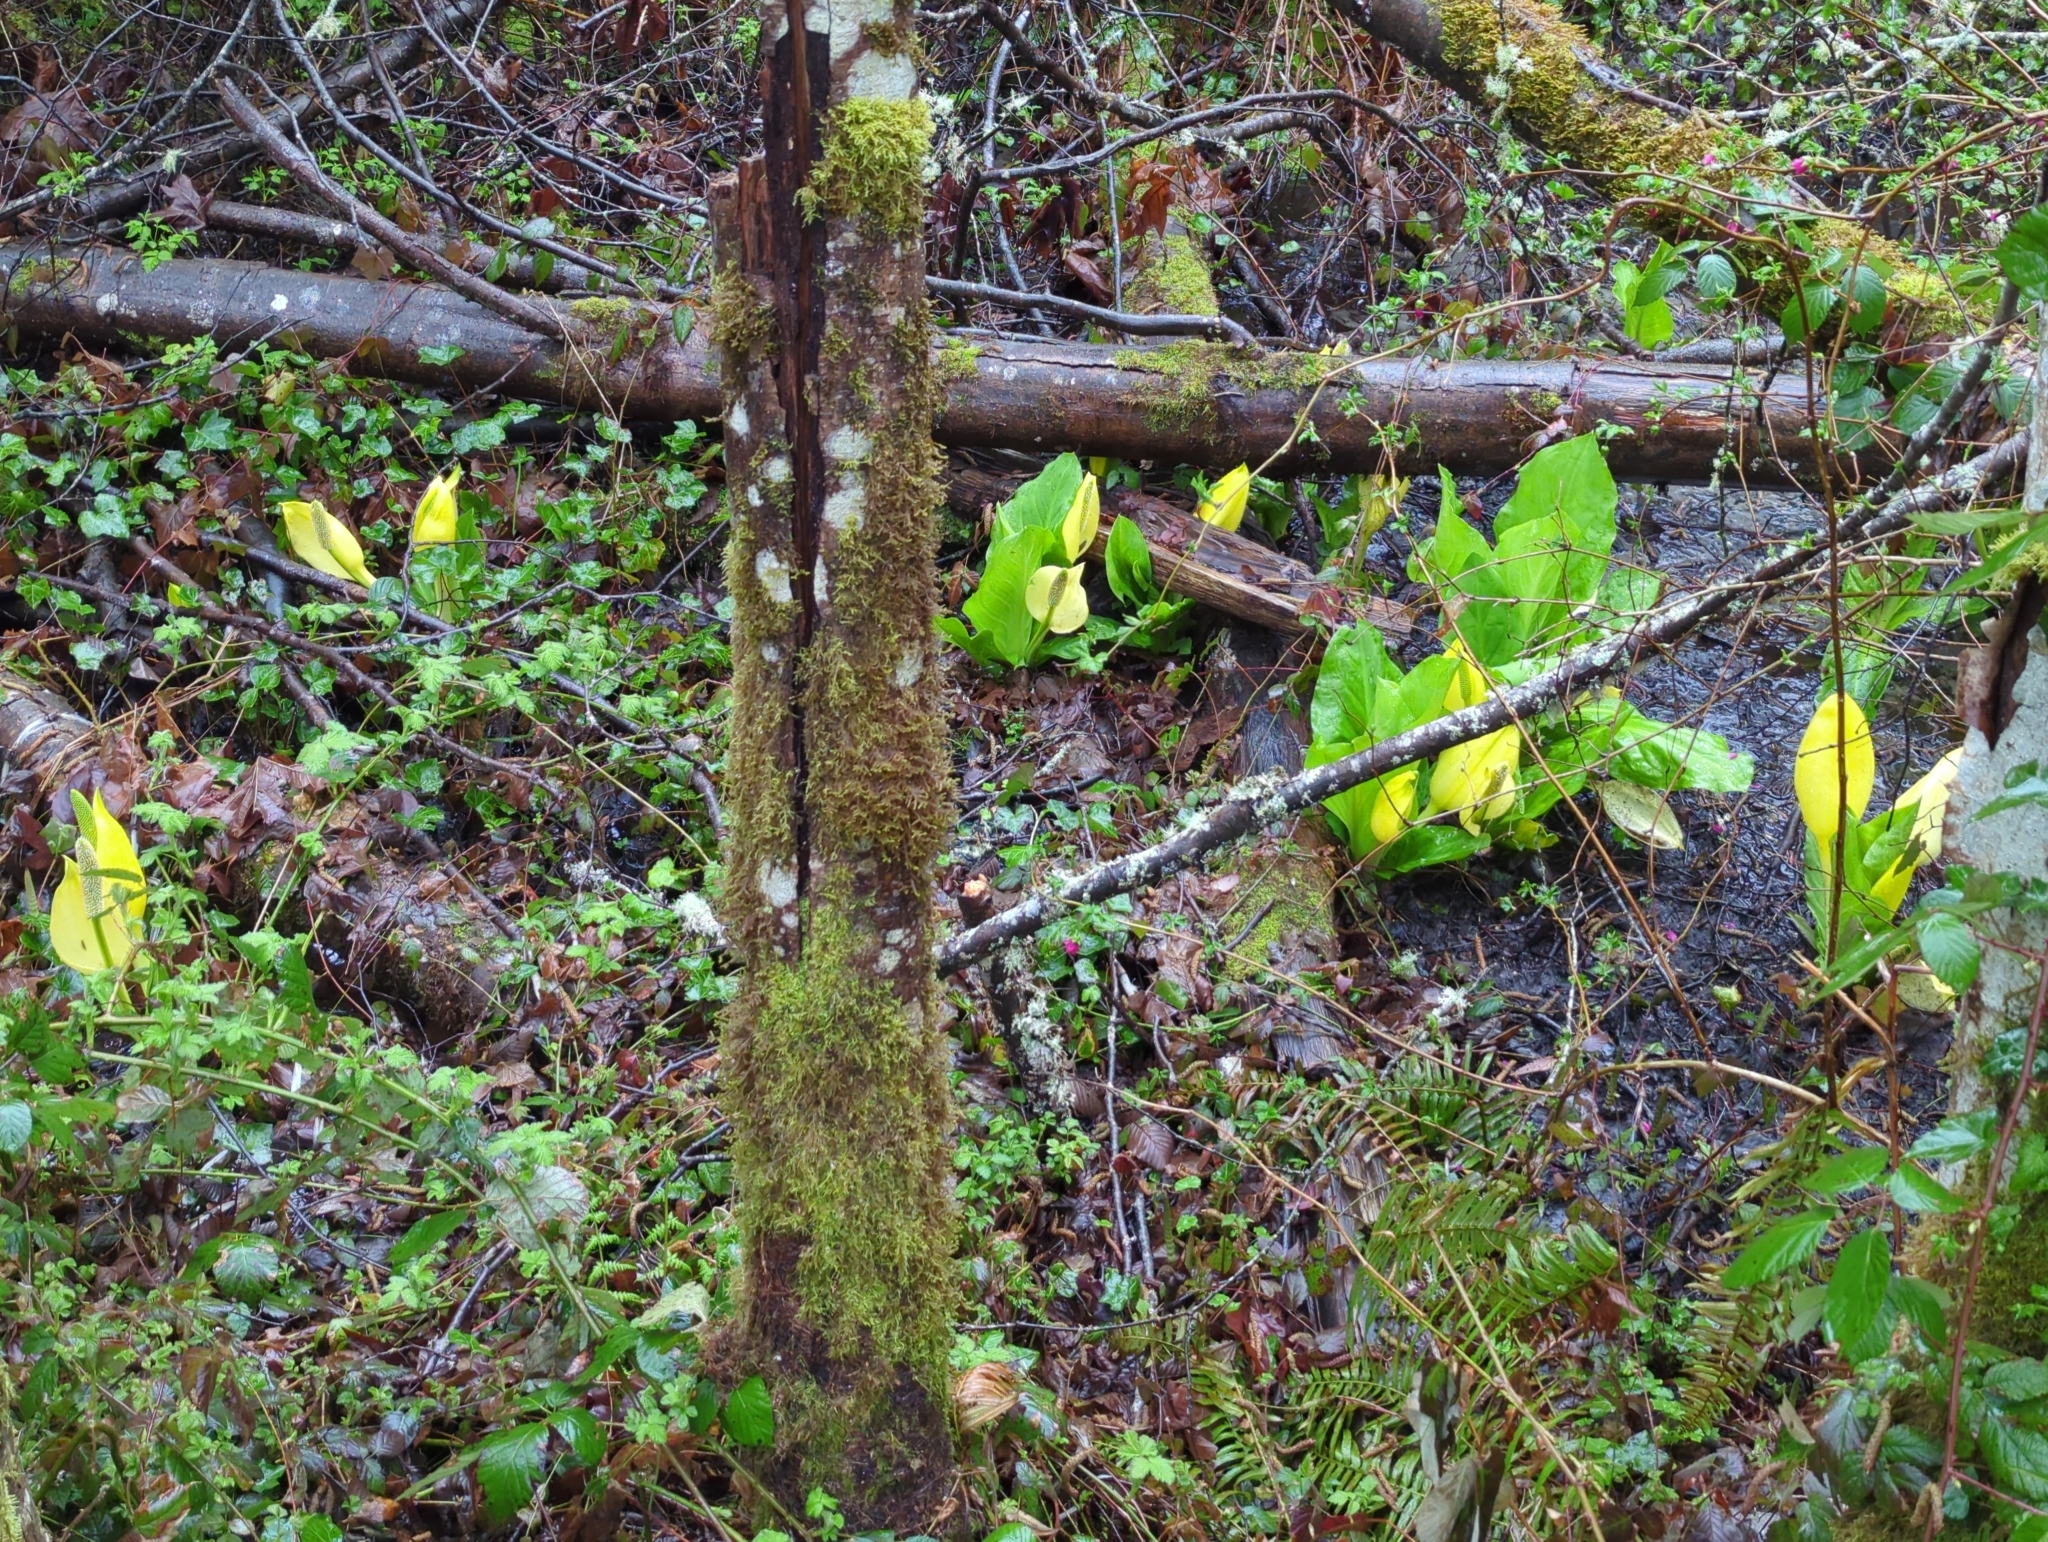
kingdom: Plantae
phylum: Tracheophyta
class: Liliopsida
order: Alismatales
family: Araceae
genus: Lysichiton
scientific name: Lysichiton americanus
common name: American skunk cabbage
